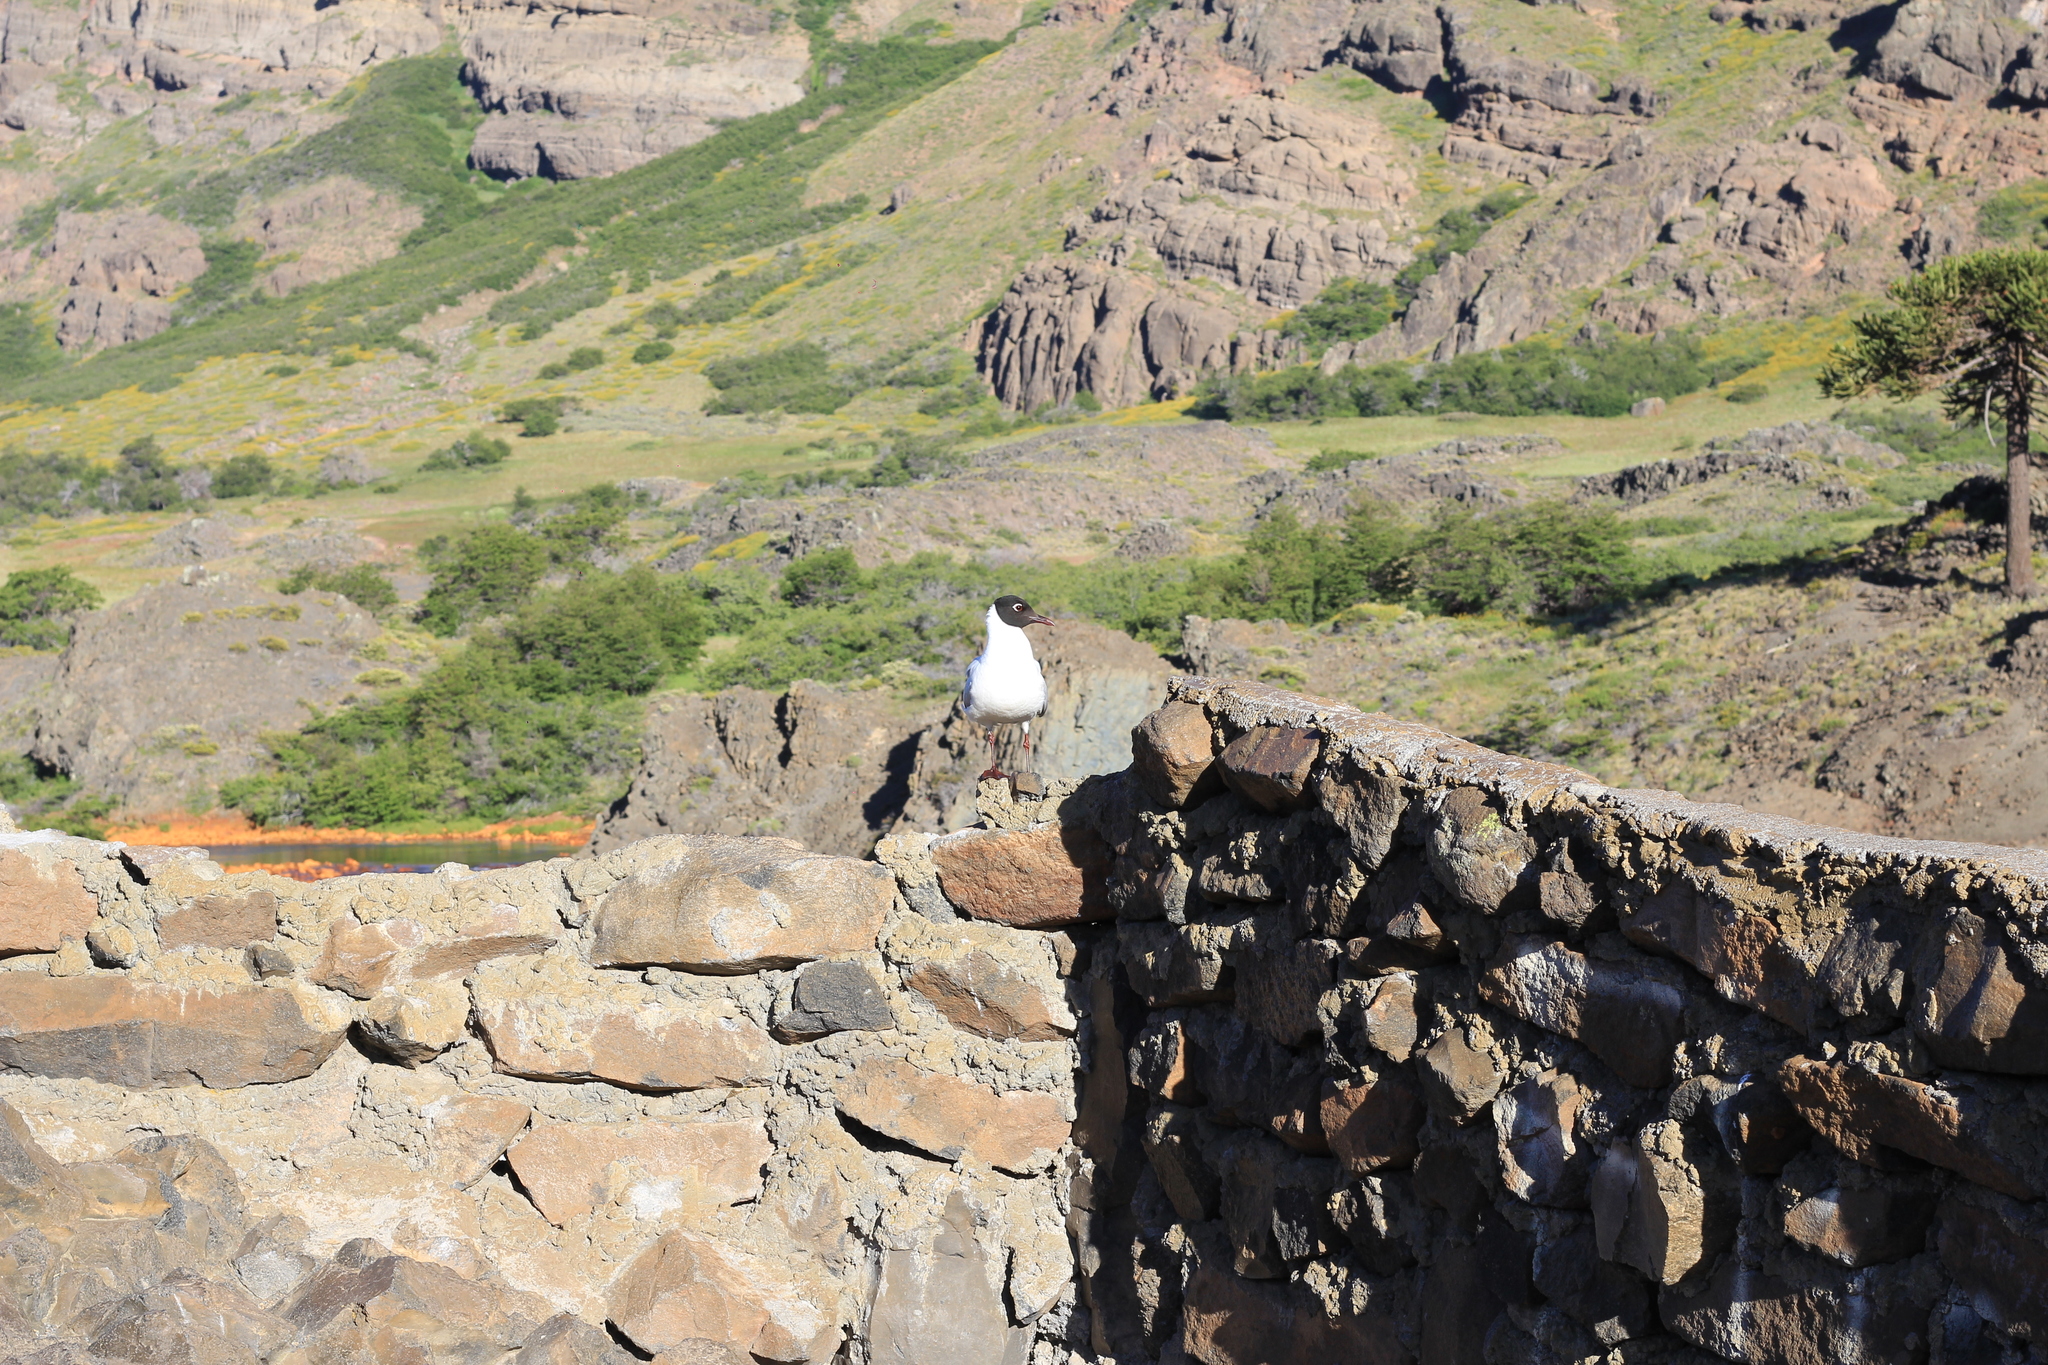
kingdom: Animalia
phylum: Chordata
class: Aves
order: Charadriiformes
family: Laridae
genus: Chroicocephalus
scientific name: Chroicocephalus serranus
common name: Andean gull
